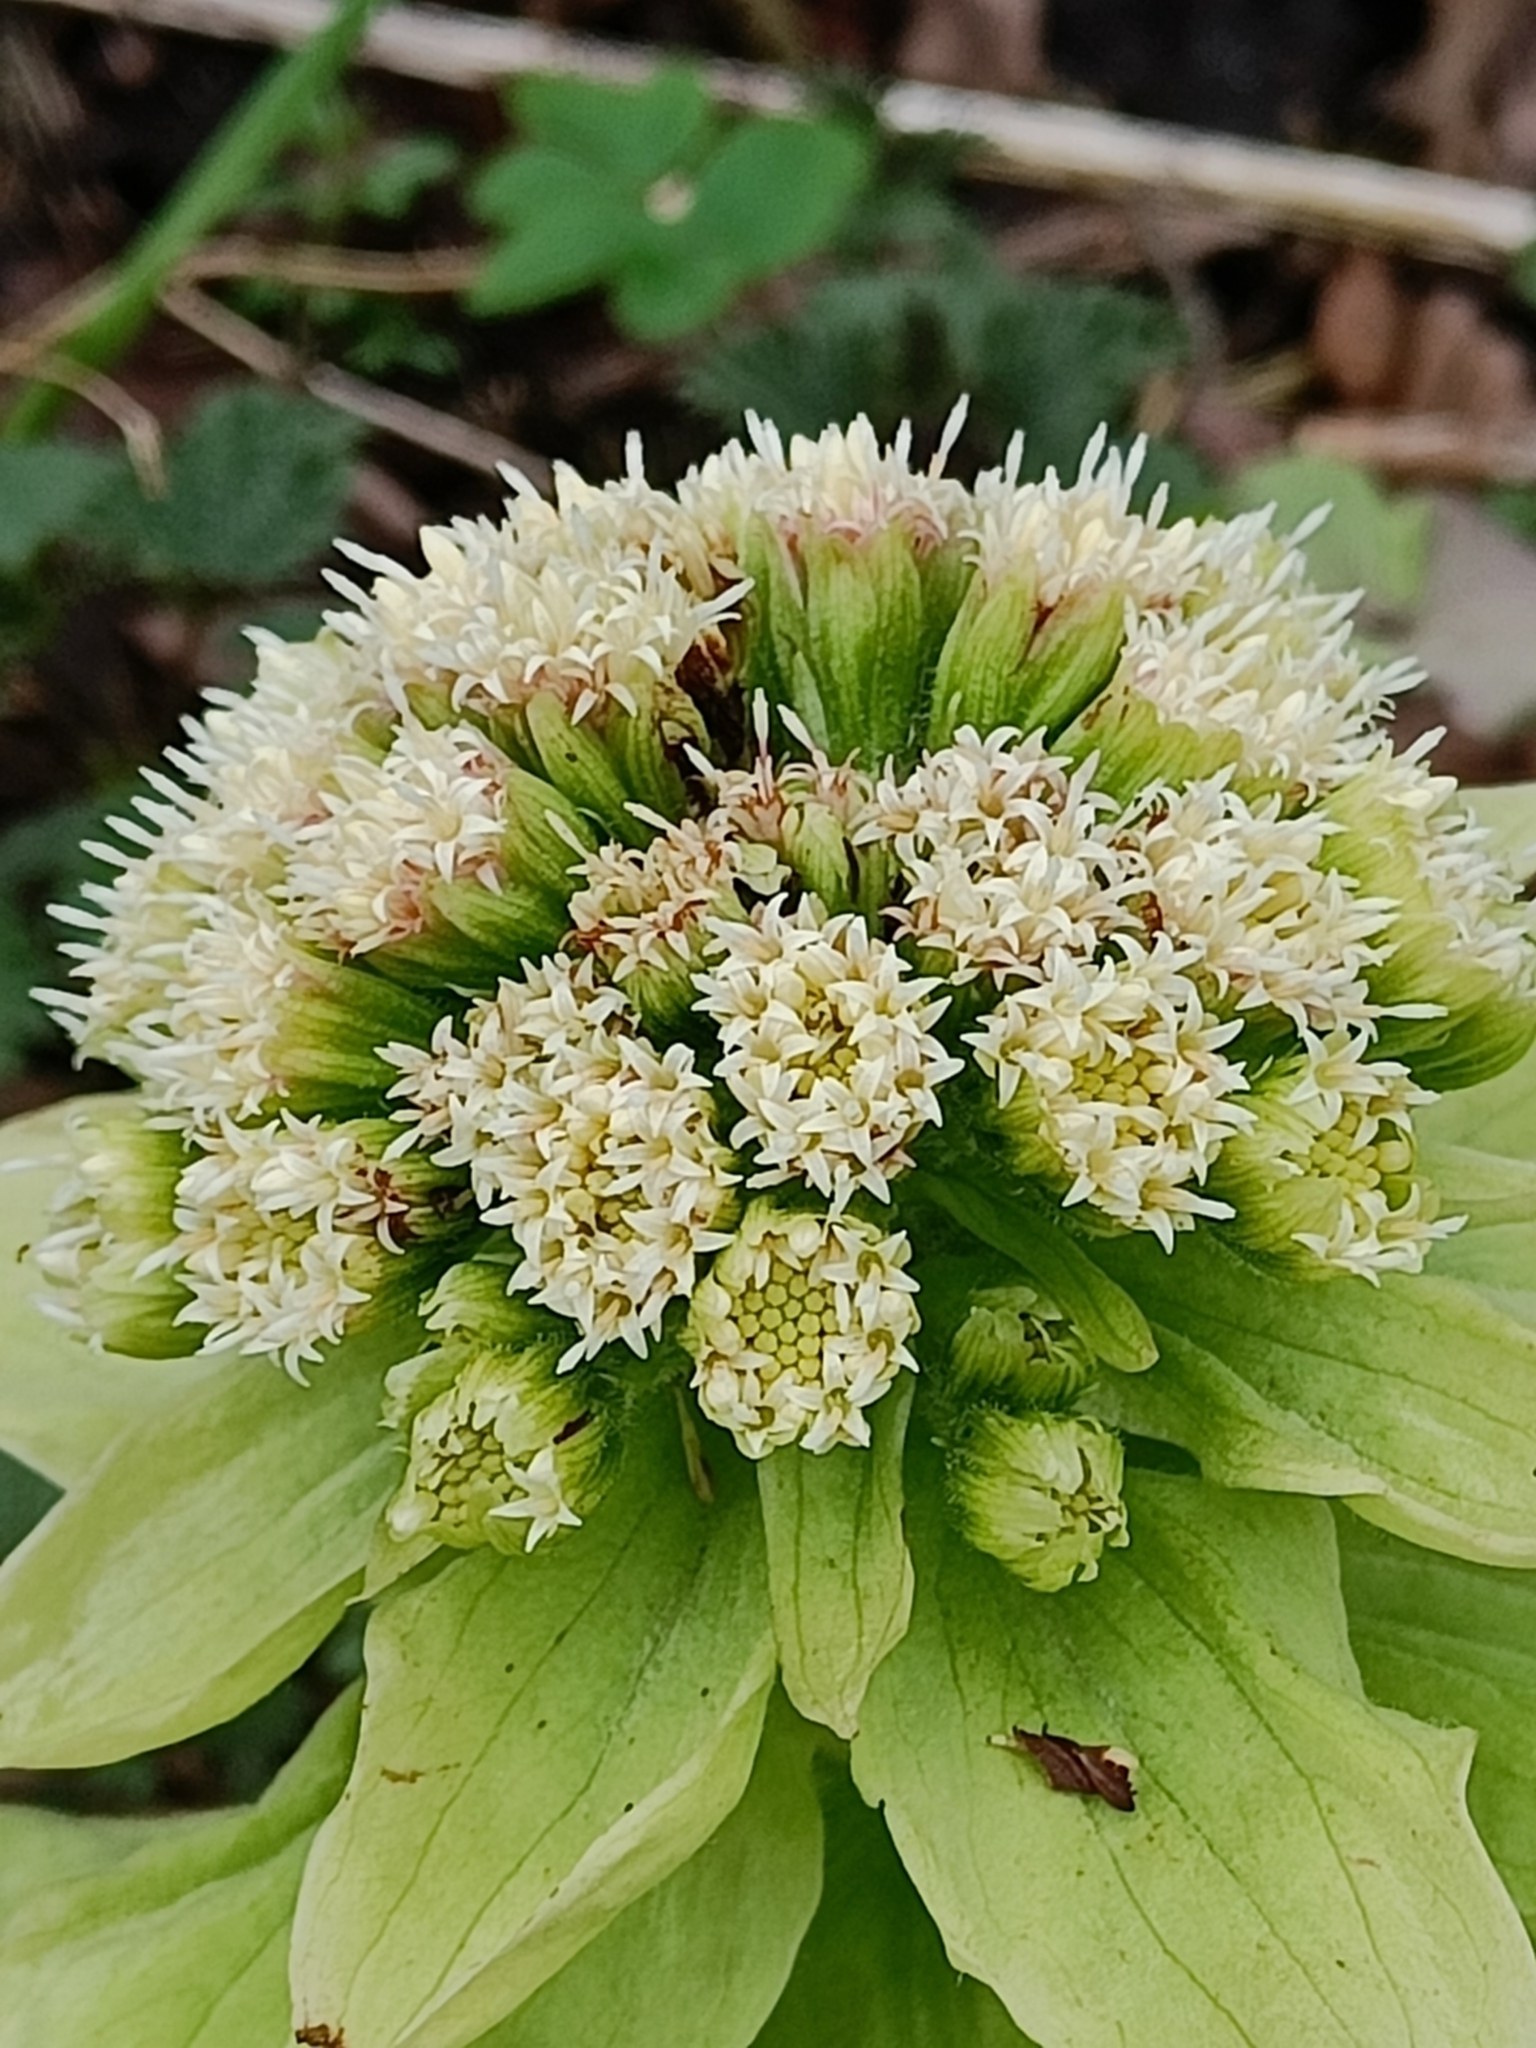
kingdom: Plantae
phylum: Tracheophyta
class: Magnoliopsida
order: Asterales
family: Asteraceae
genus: Petasites
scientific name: Petasites japonicus
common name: Giant butterbur
